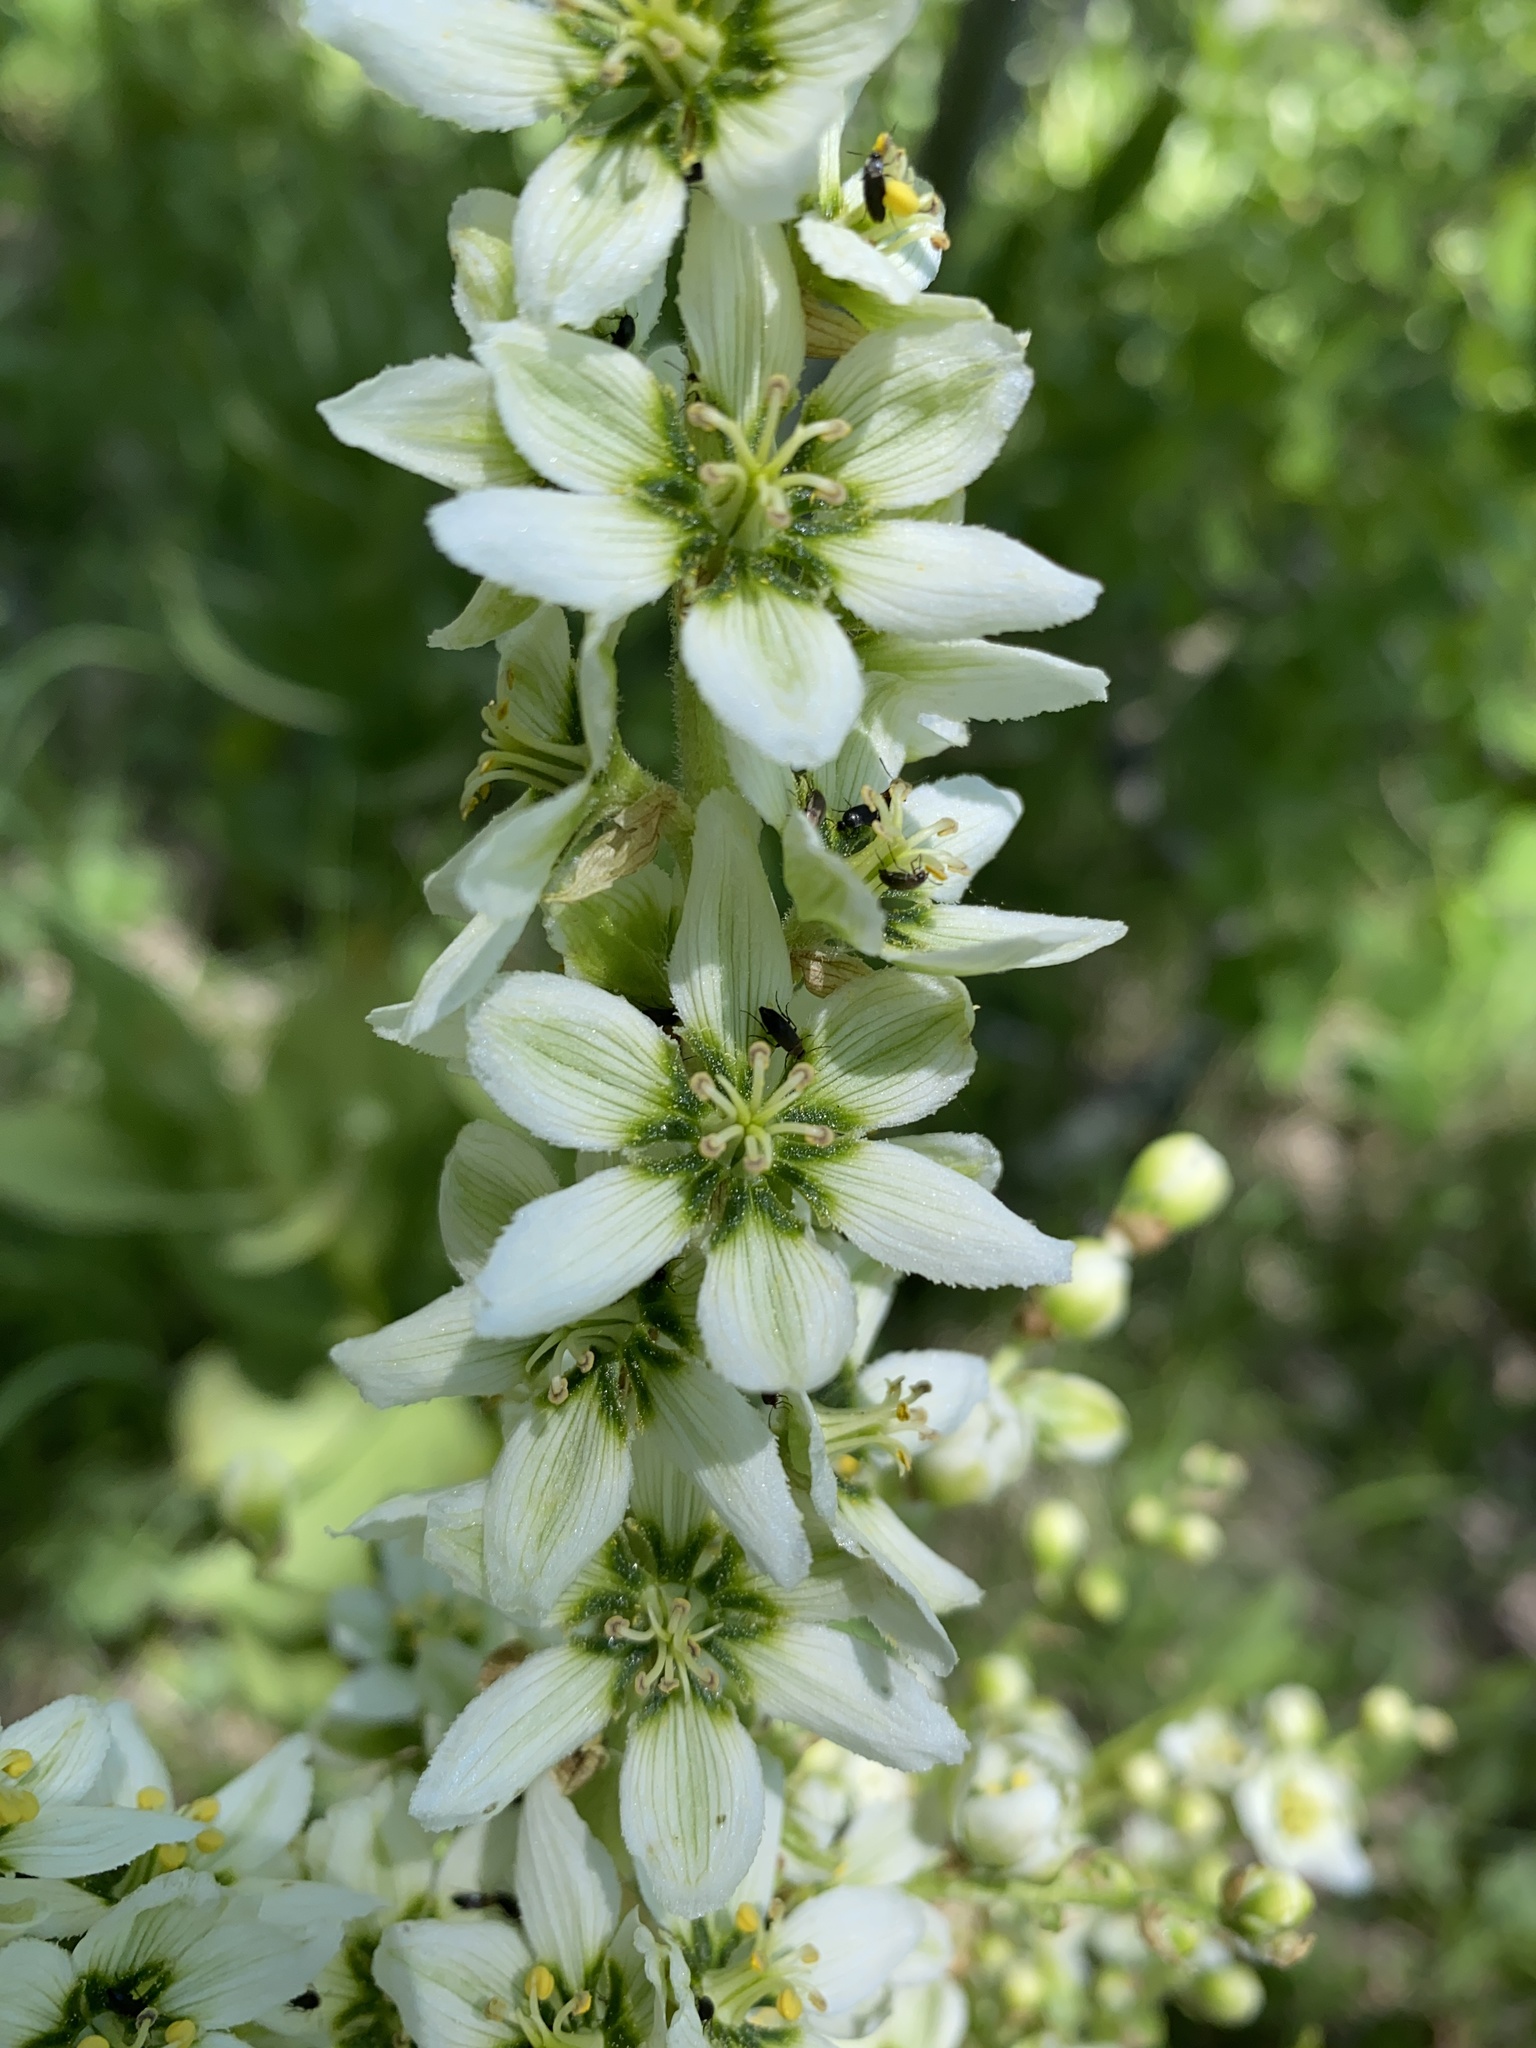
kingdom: Plantae
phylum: Tracheophyta
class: Liliopsida
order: Liliales
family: Melanthiaceae
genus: Veratrum
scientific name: Veratrum californicum
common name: California veratrum
